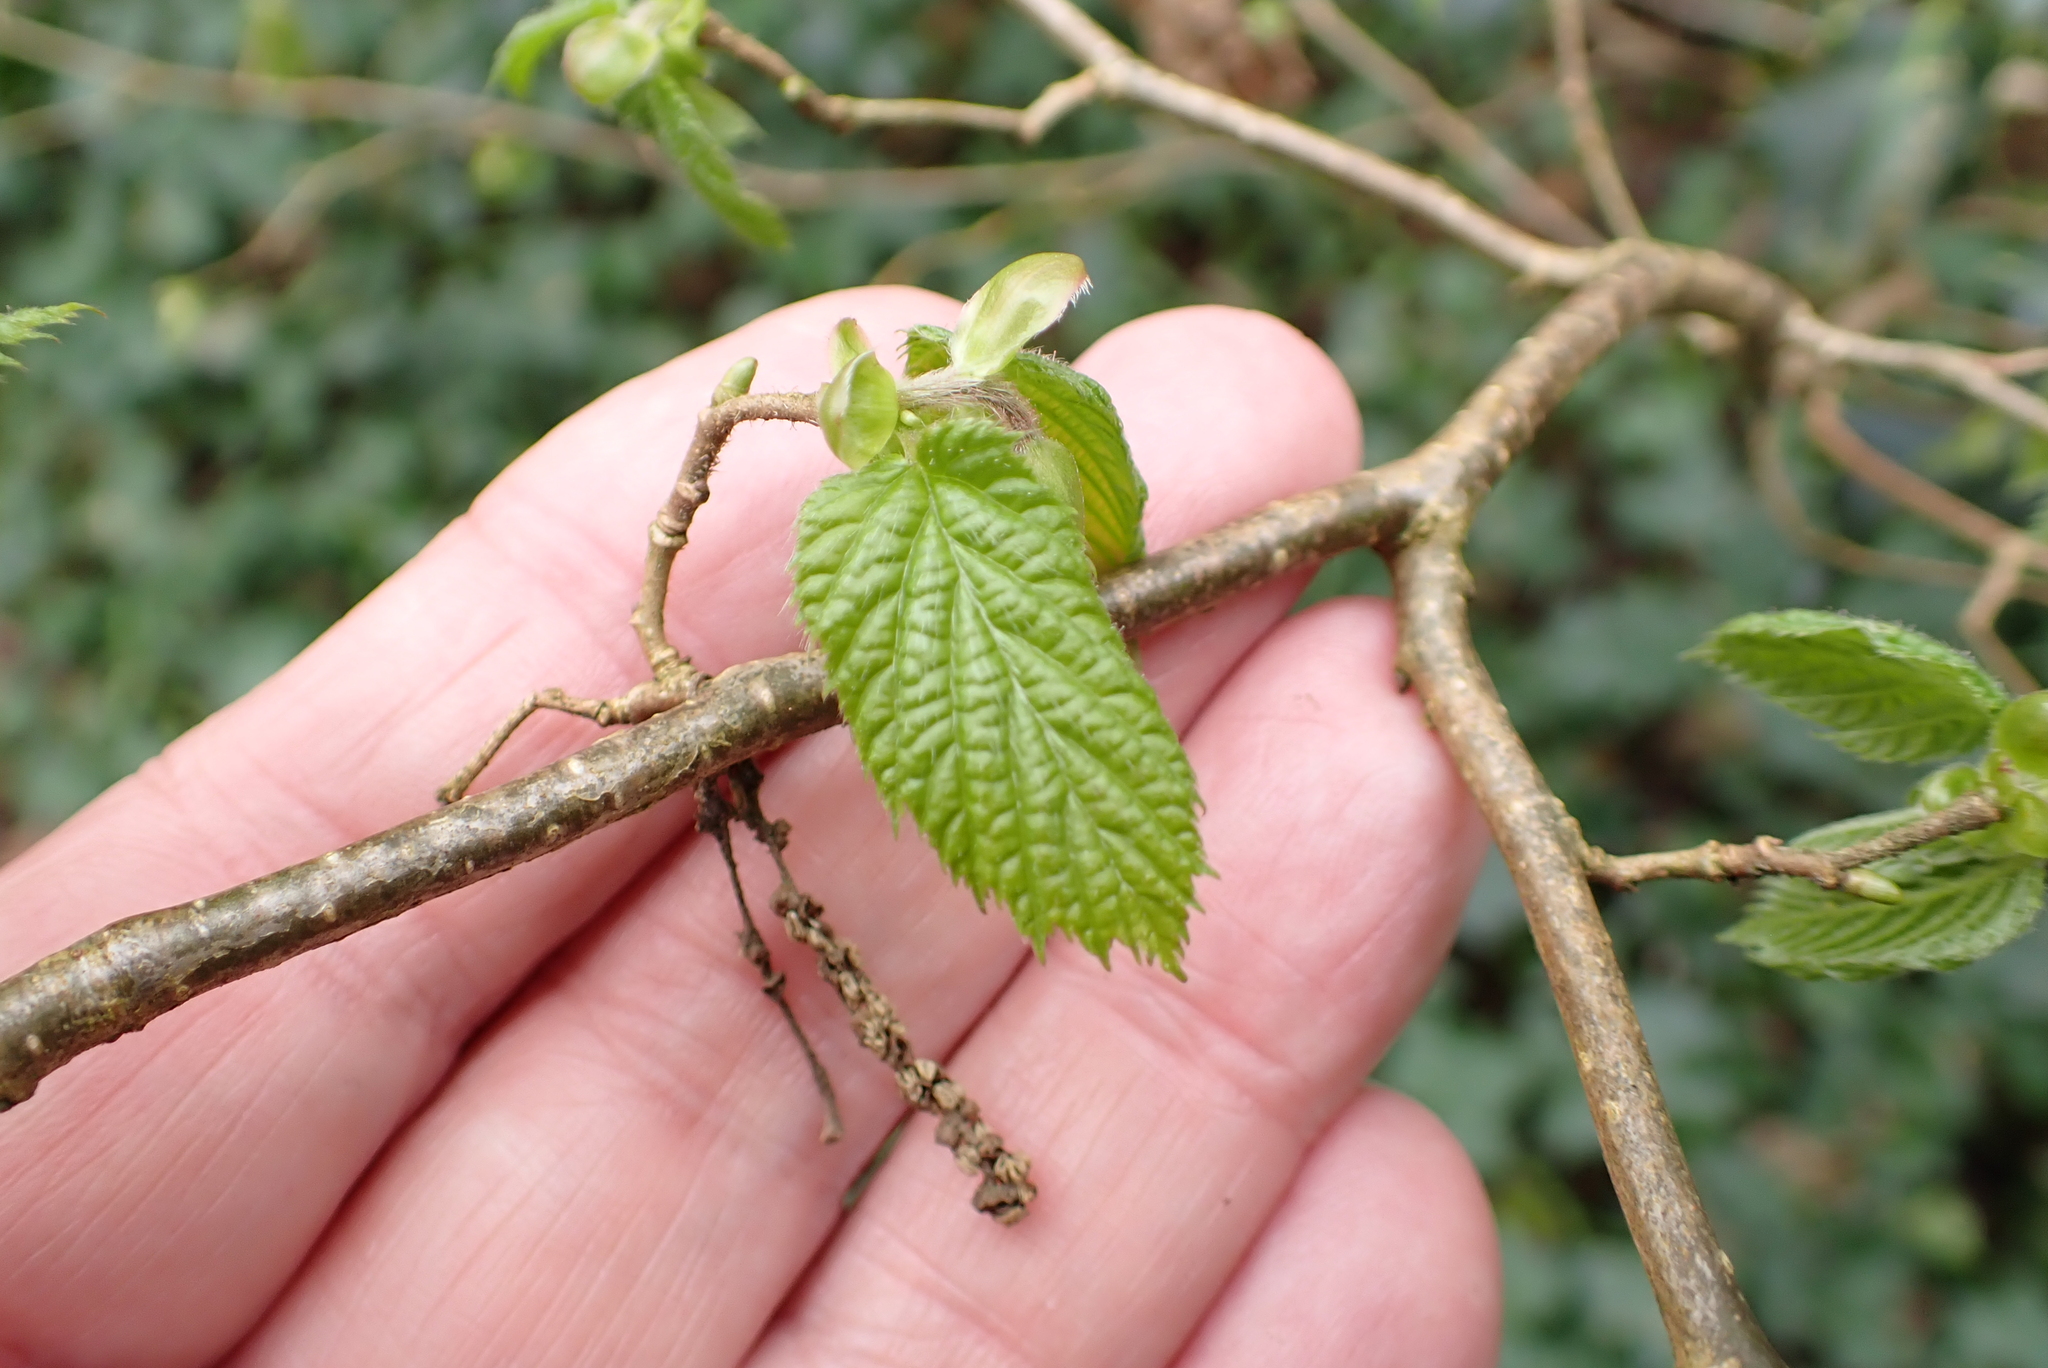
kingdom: Plantae
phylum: Tracheophyta
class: Magnoliopsida
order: Fagales
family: Betulaceae
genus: Corylus
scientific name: Corylus avellana
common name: European hazel
